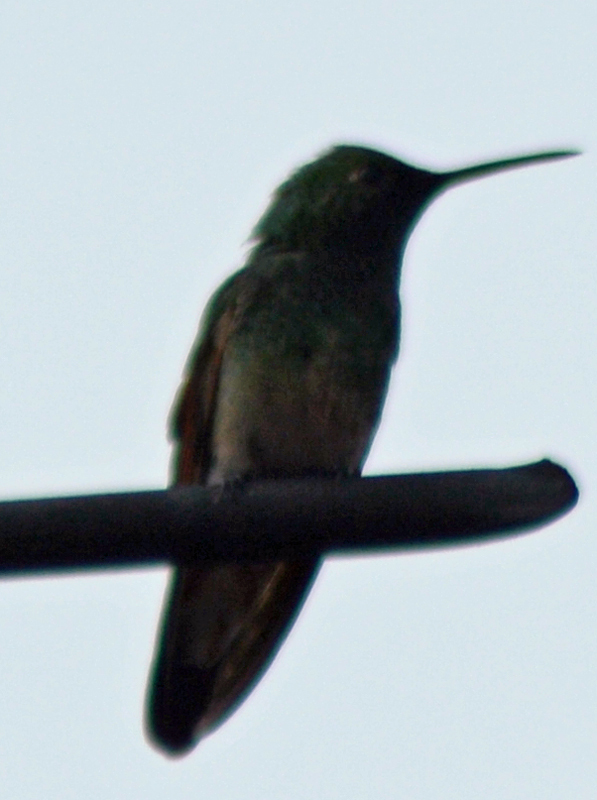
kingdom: Animalia
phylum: Chordata
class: Aves
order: Apodiformes
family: Trochilidae
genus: Saucerottia
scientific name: Saucerottia beryllina
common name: Berylline hummingbird
